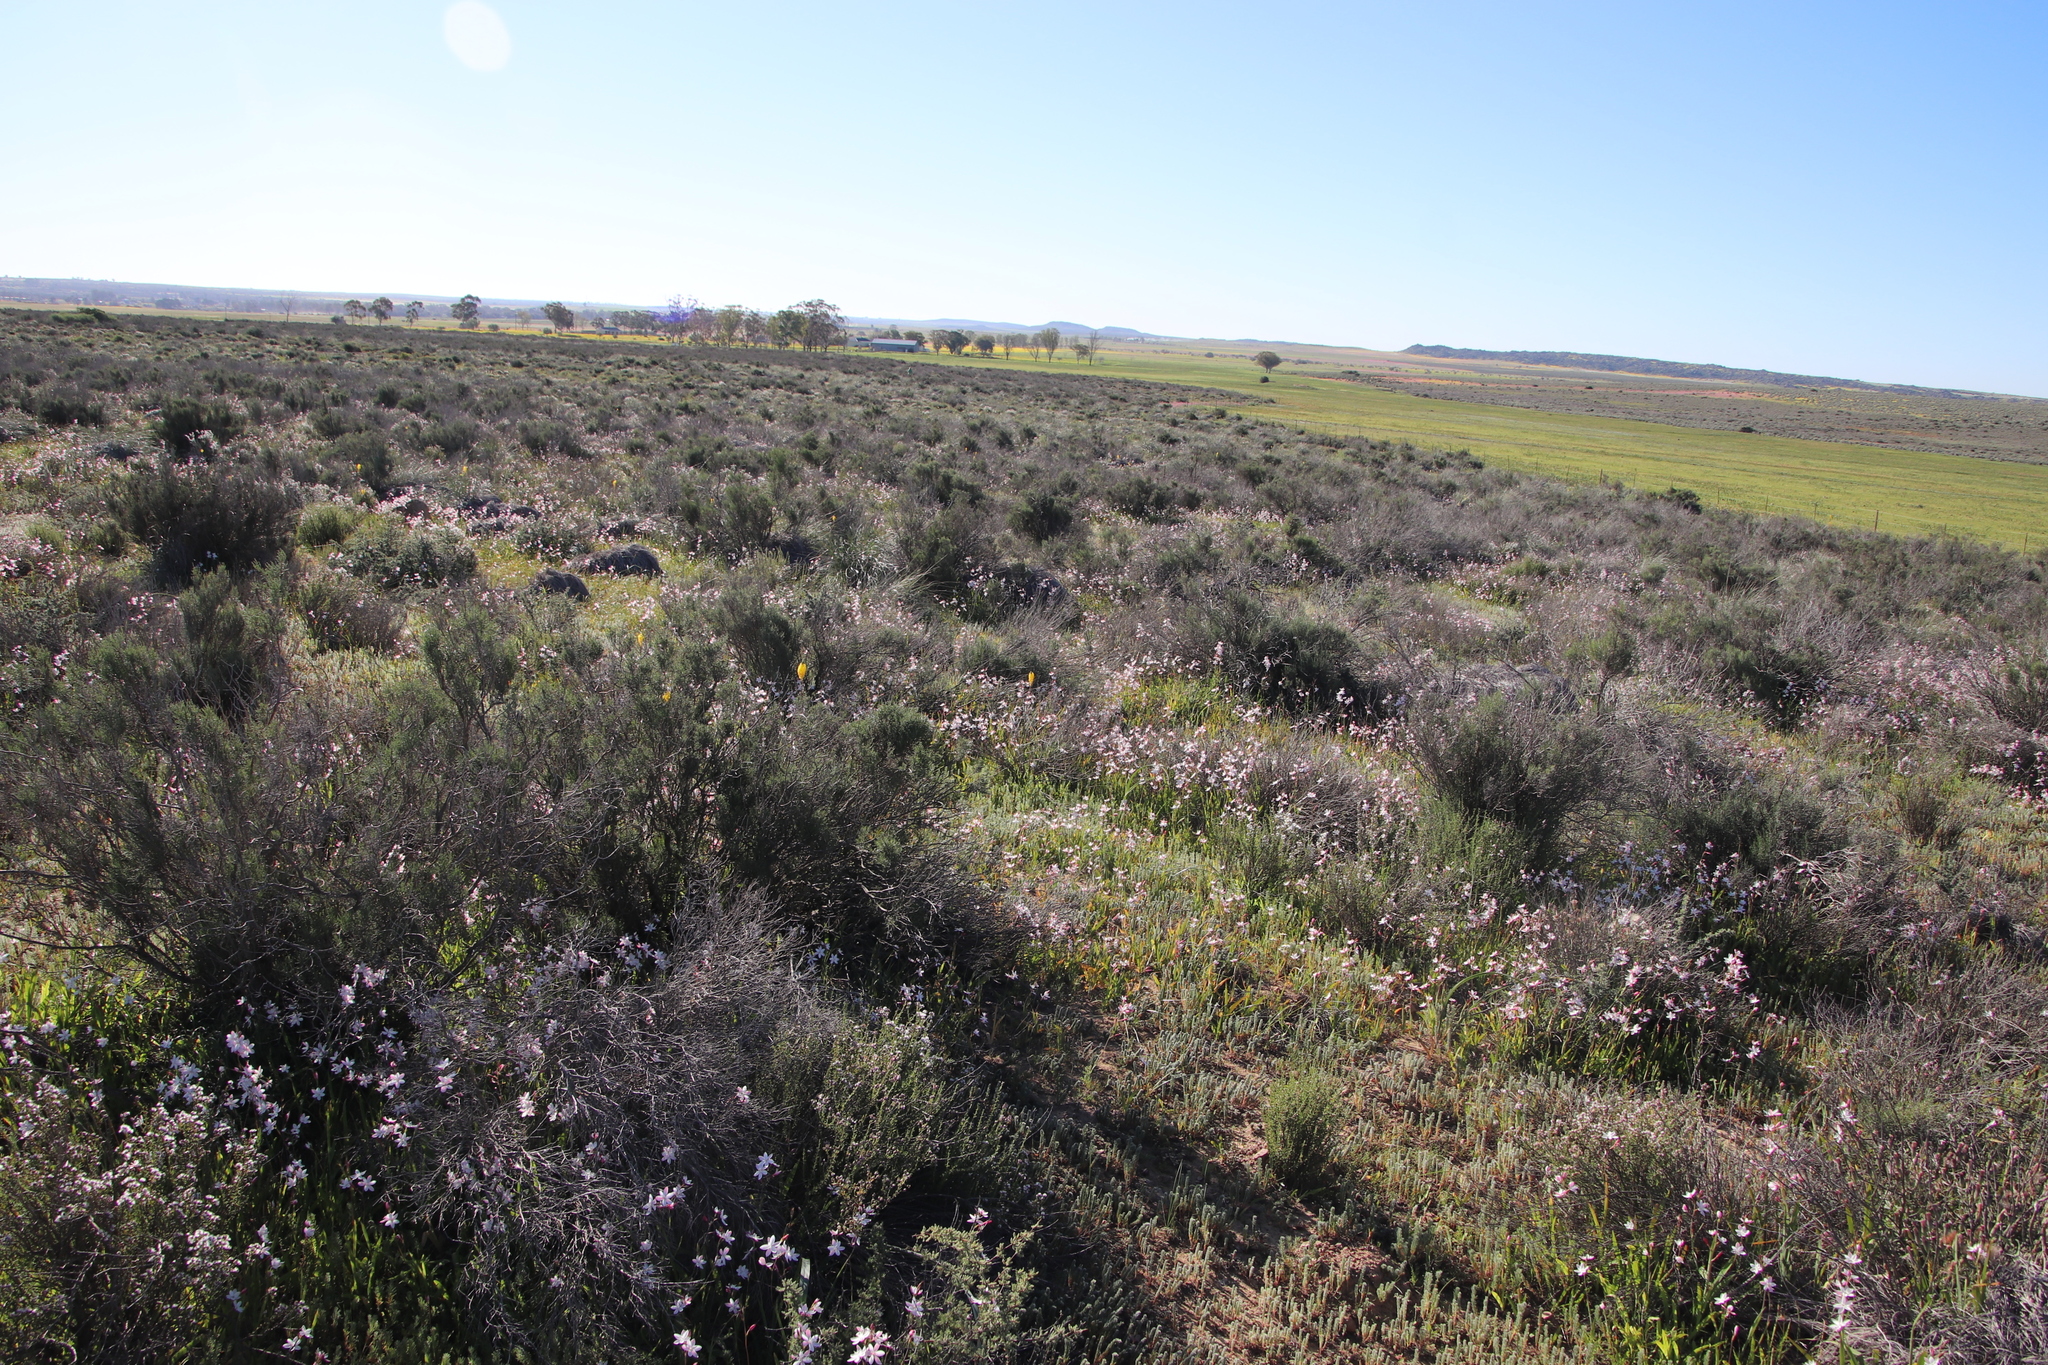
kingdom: Plantae
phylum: Tracheophyta
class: Liliopsida
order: Asparagales
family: Iridaceae
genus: Hesperantha
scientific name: Hesperantha cucullata
